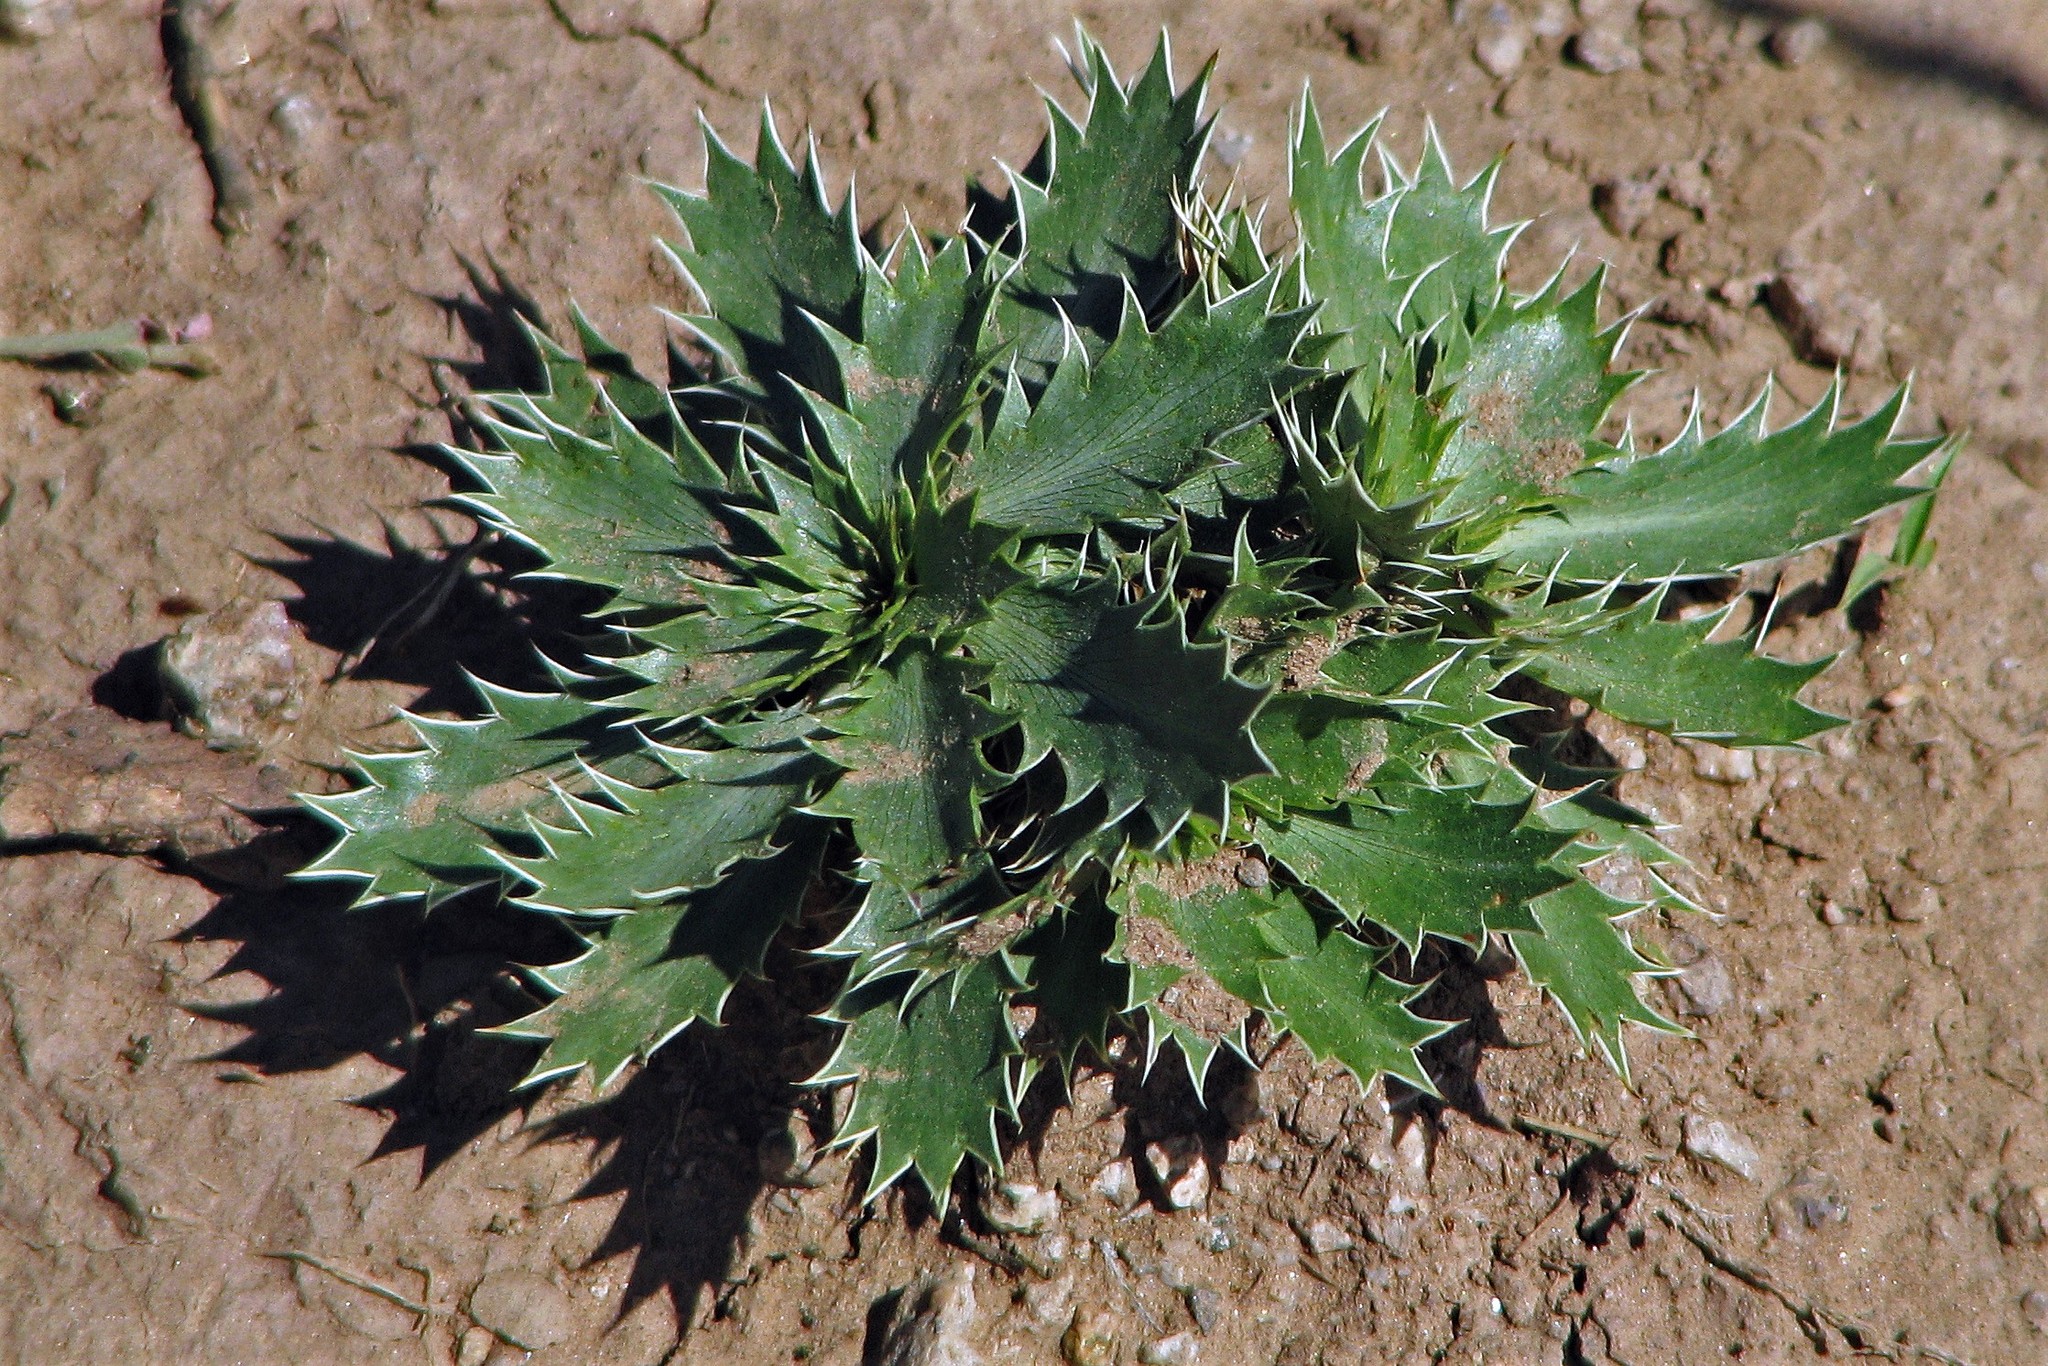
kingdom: Plantae
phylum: Tracheophyta
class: Magnoliopsida
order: Apiales
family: Apiaceae
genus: Eryngium
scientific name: Eryngium nudicaule
